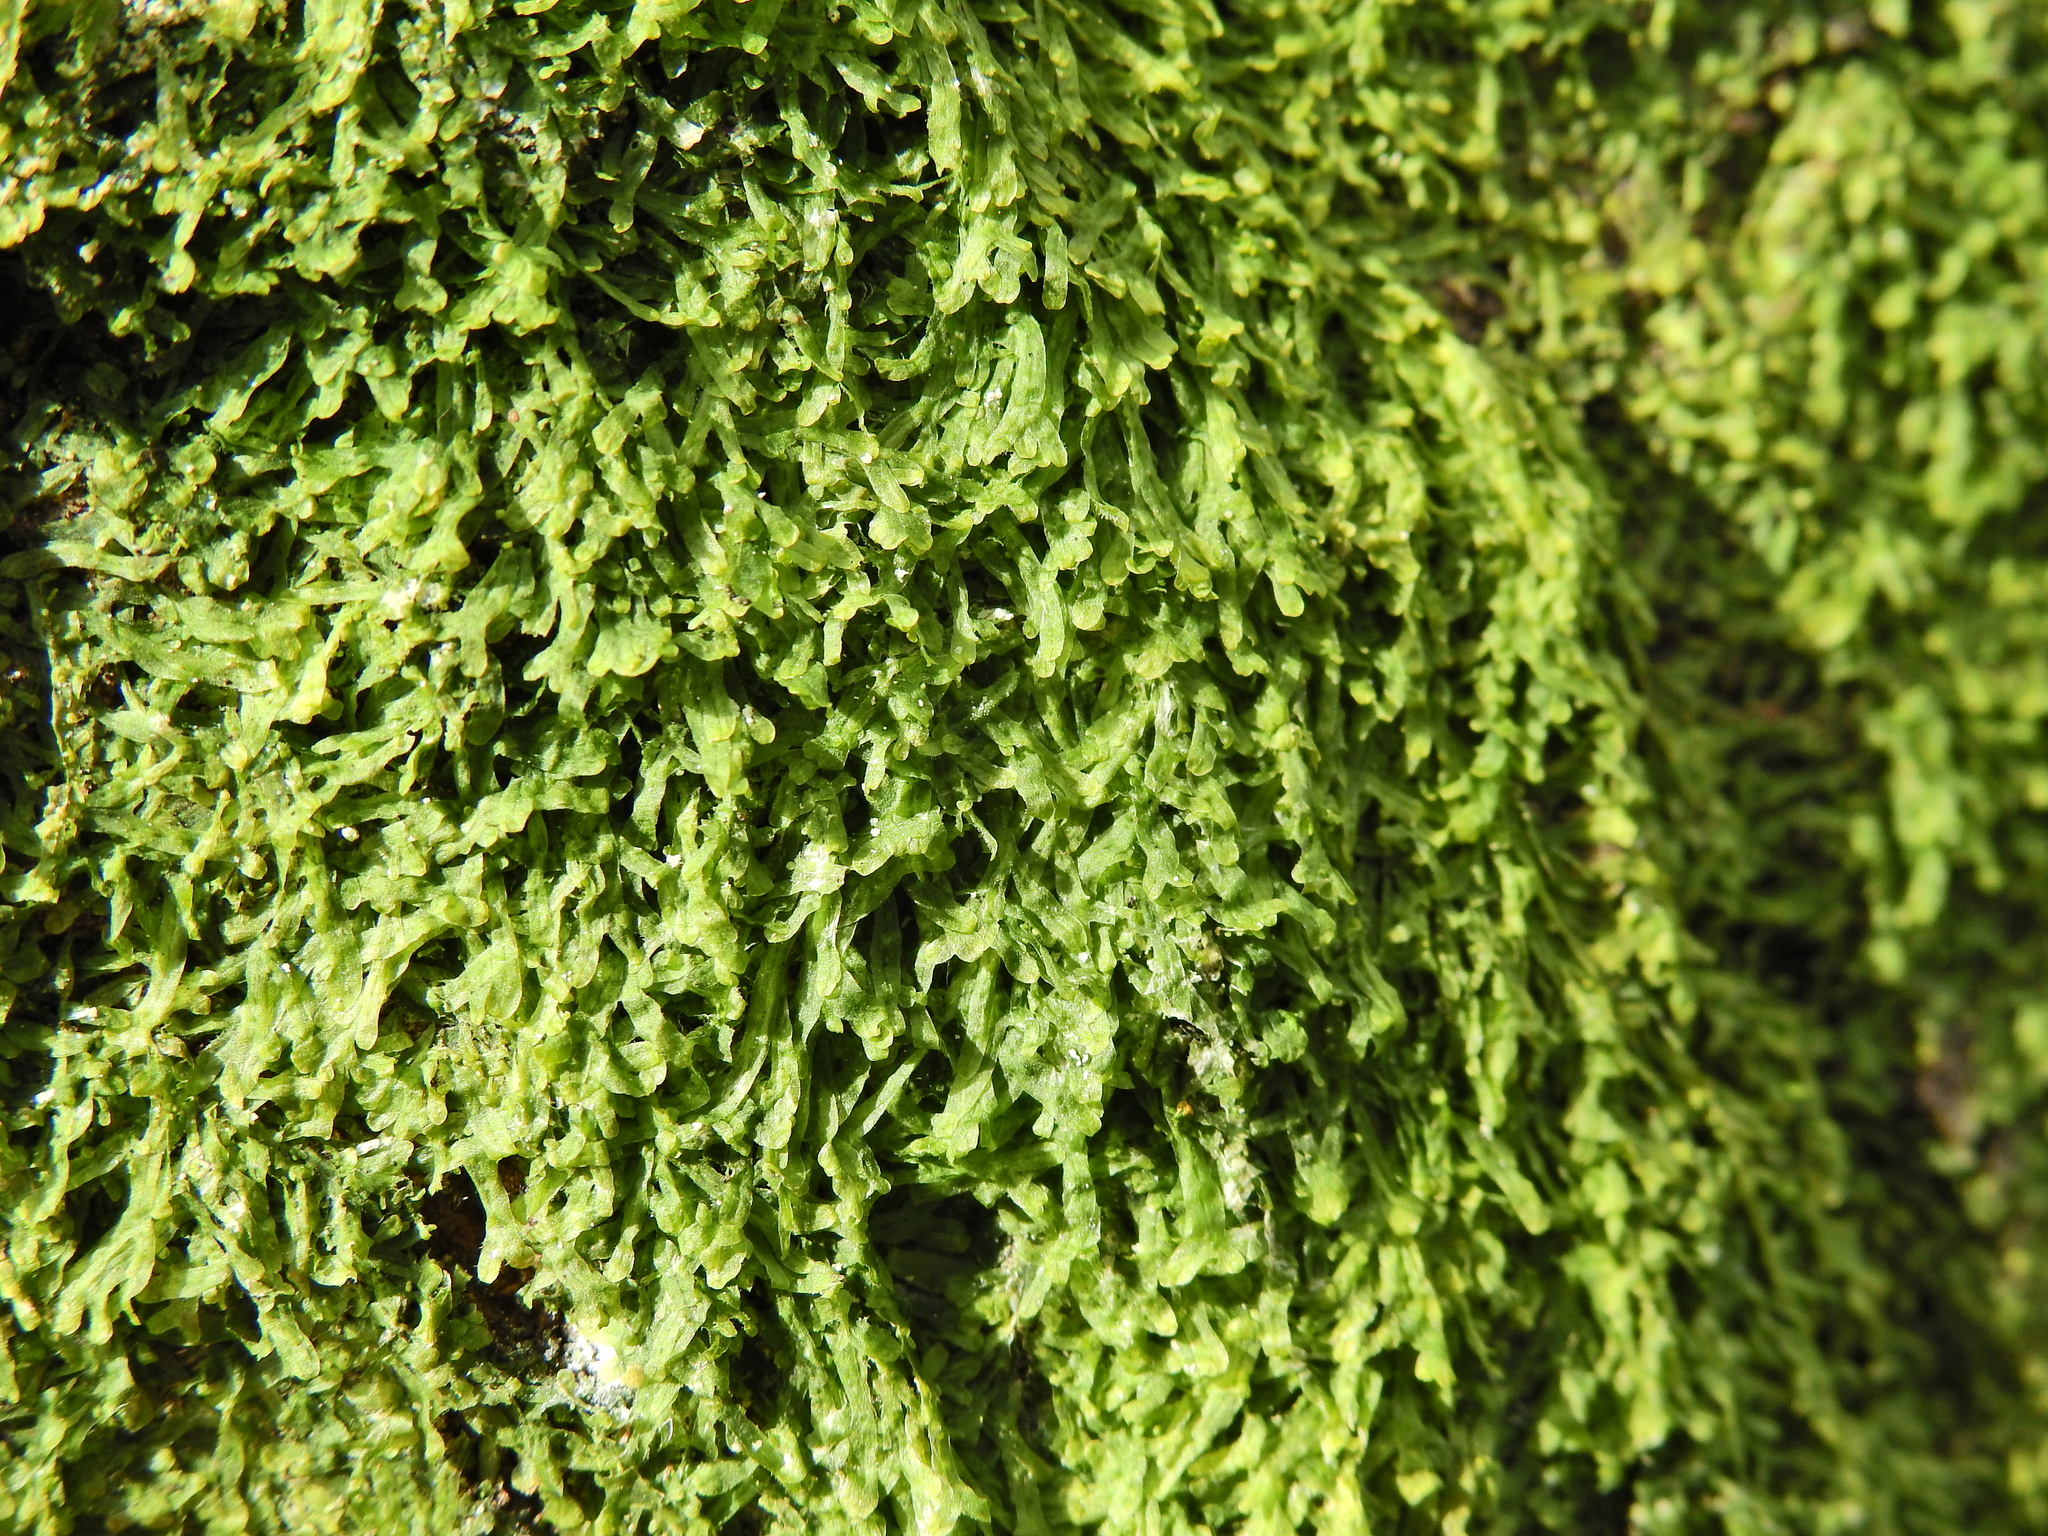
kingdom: Plantae
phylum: Marchantiophyta
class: Jungermanniopsida
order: Metzgeriales
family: Metzgeriaceae
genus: Metzgeria
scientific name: Metzgeria furcata
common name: Forked veilwort
